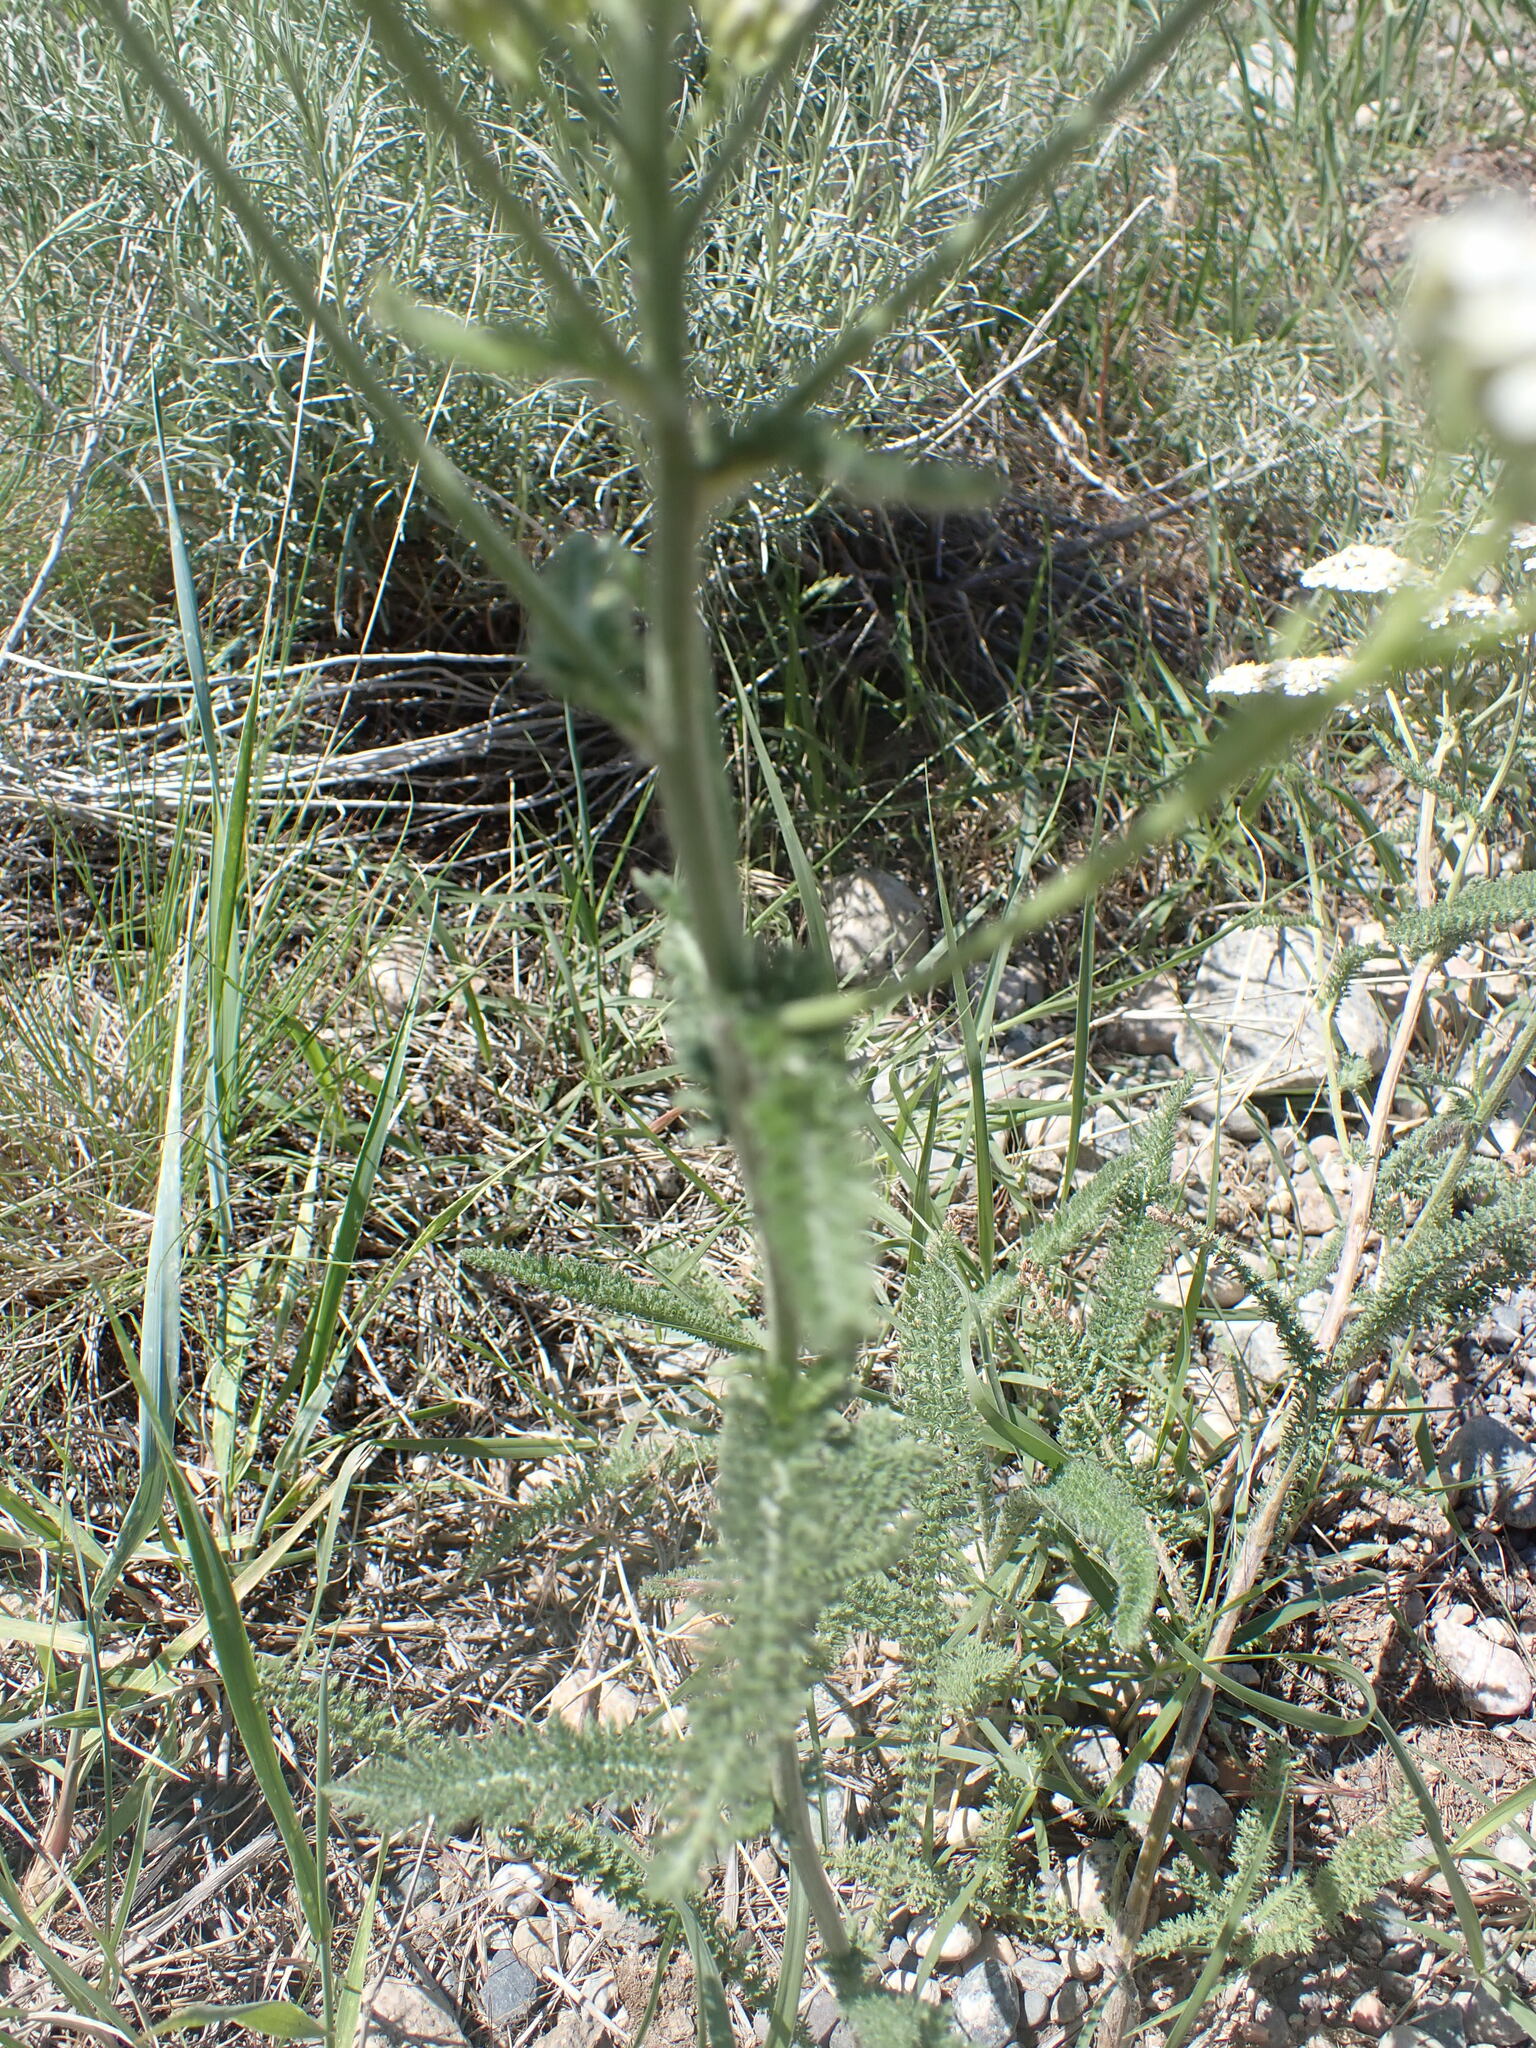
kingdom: Plantae
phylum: Tracheophyta
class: Magnoliopsida
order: Asterales
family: Asteraceae
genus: Achillea
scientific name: Achillea millefolium
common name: Yarrow
